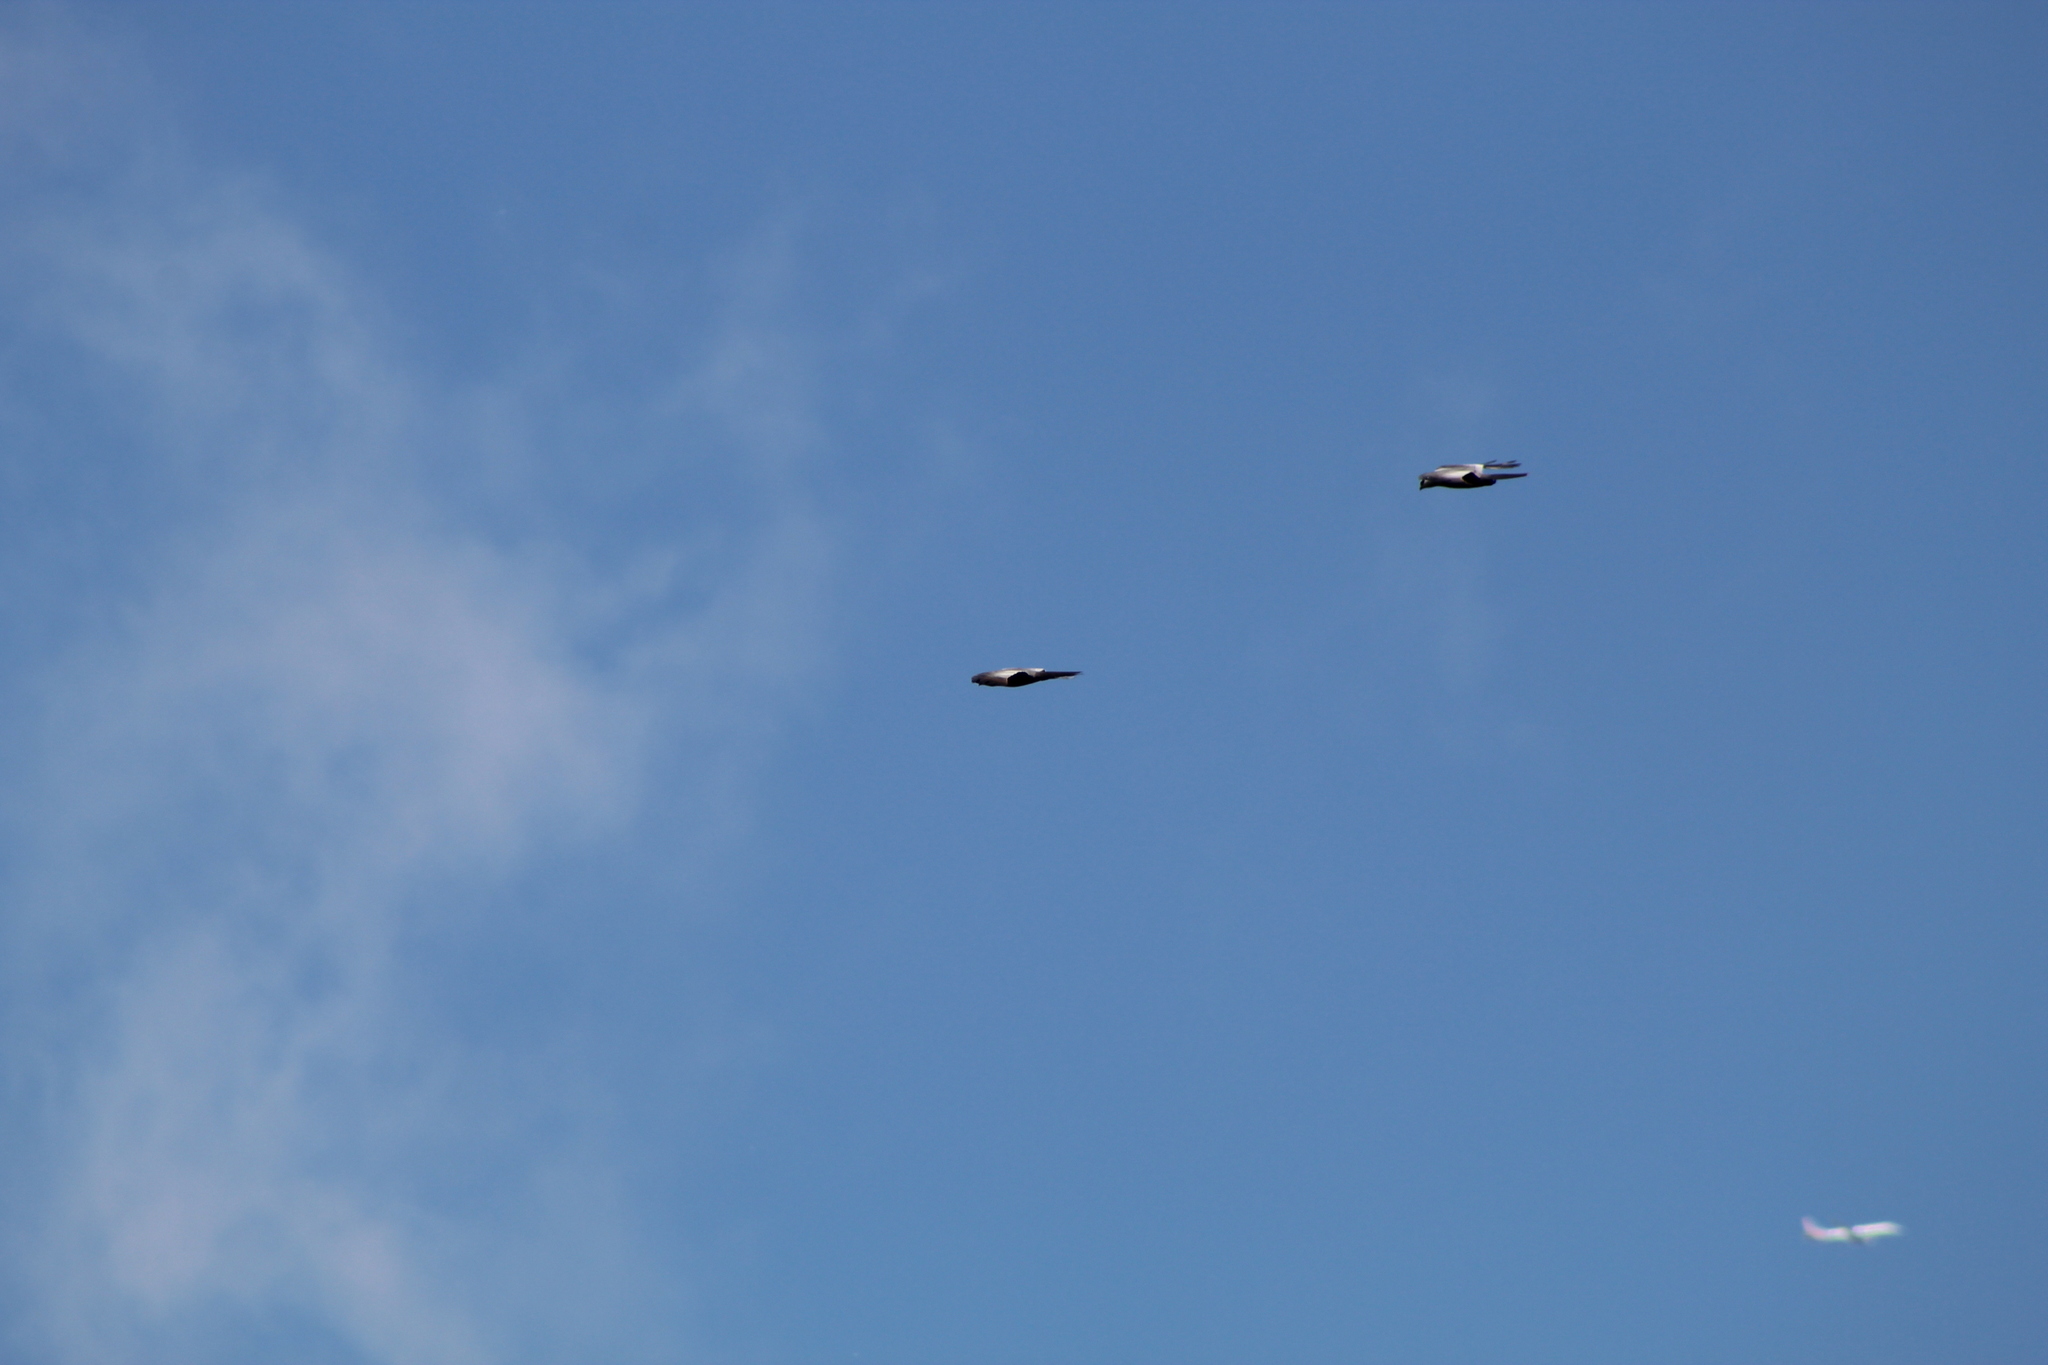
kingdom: Animalia
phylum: Chordata
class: Aves
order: Accipitriformes
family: Accipitridae
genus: Ictinia
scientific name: Ictinia mississippiensis
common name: Mississippi kite
